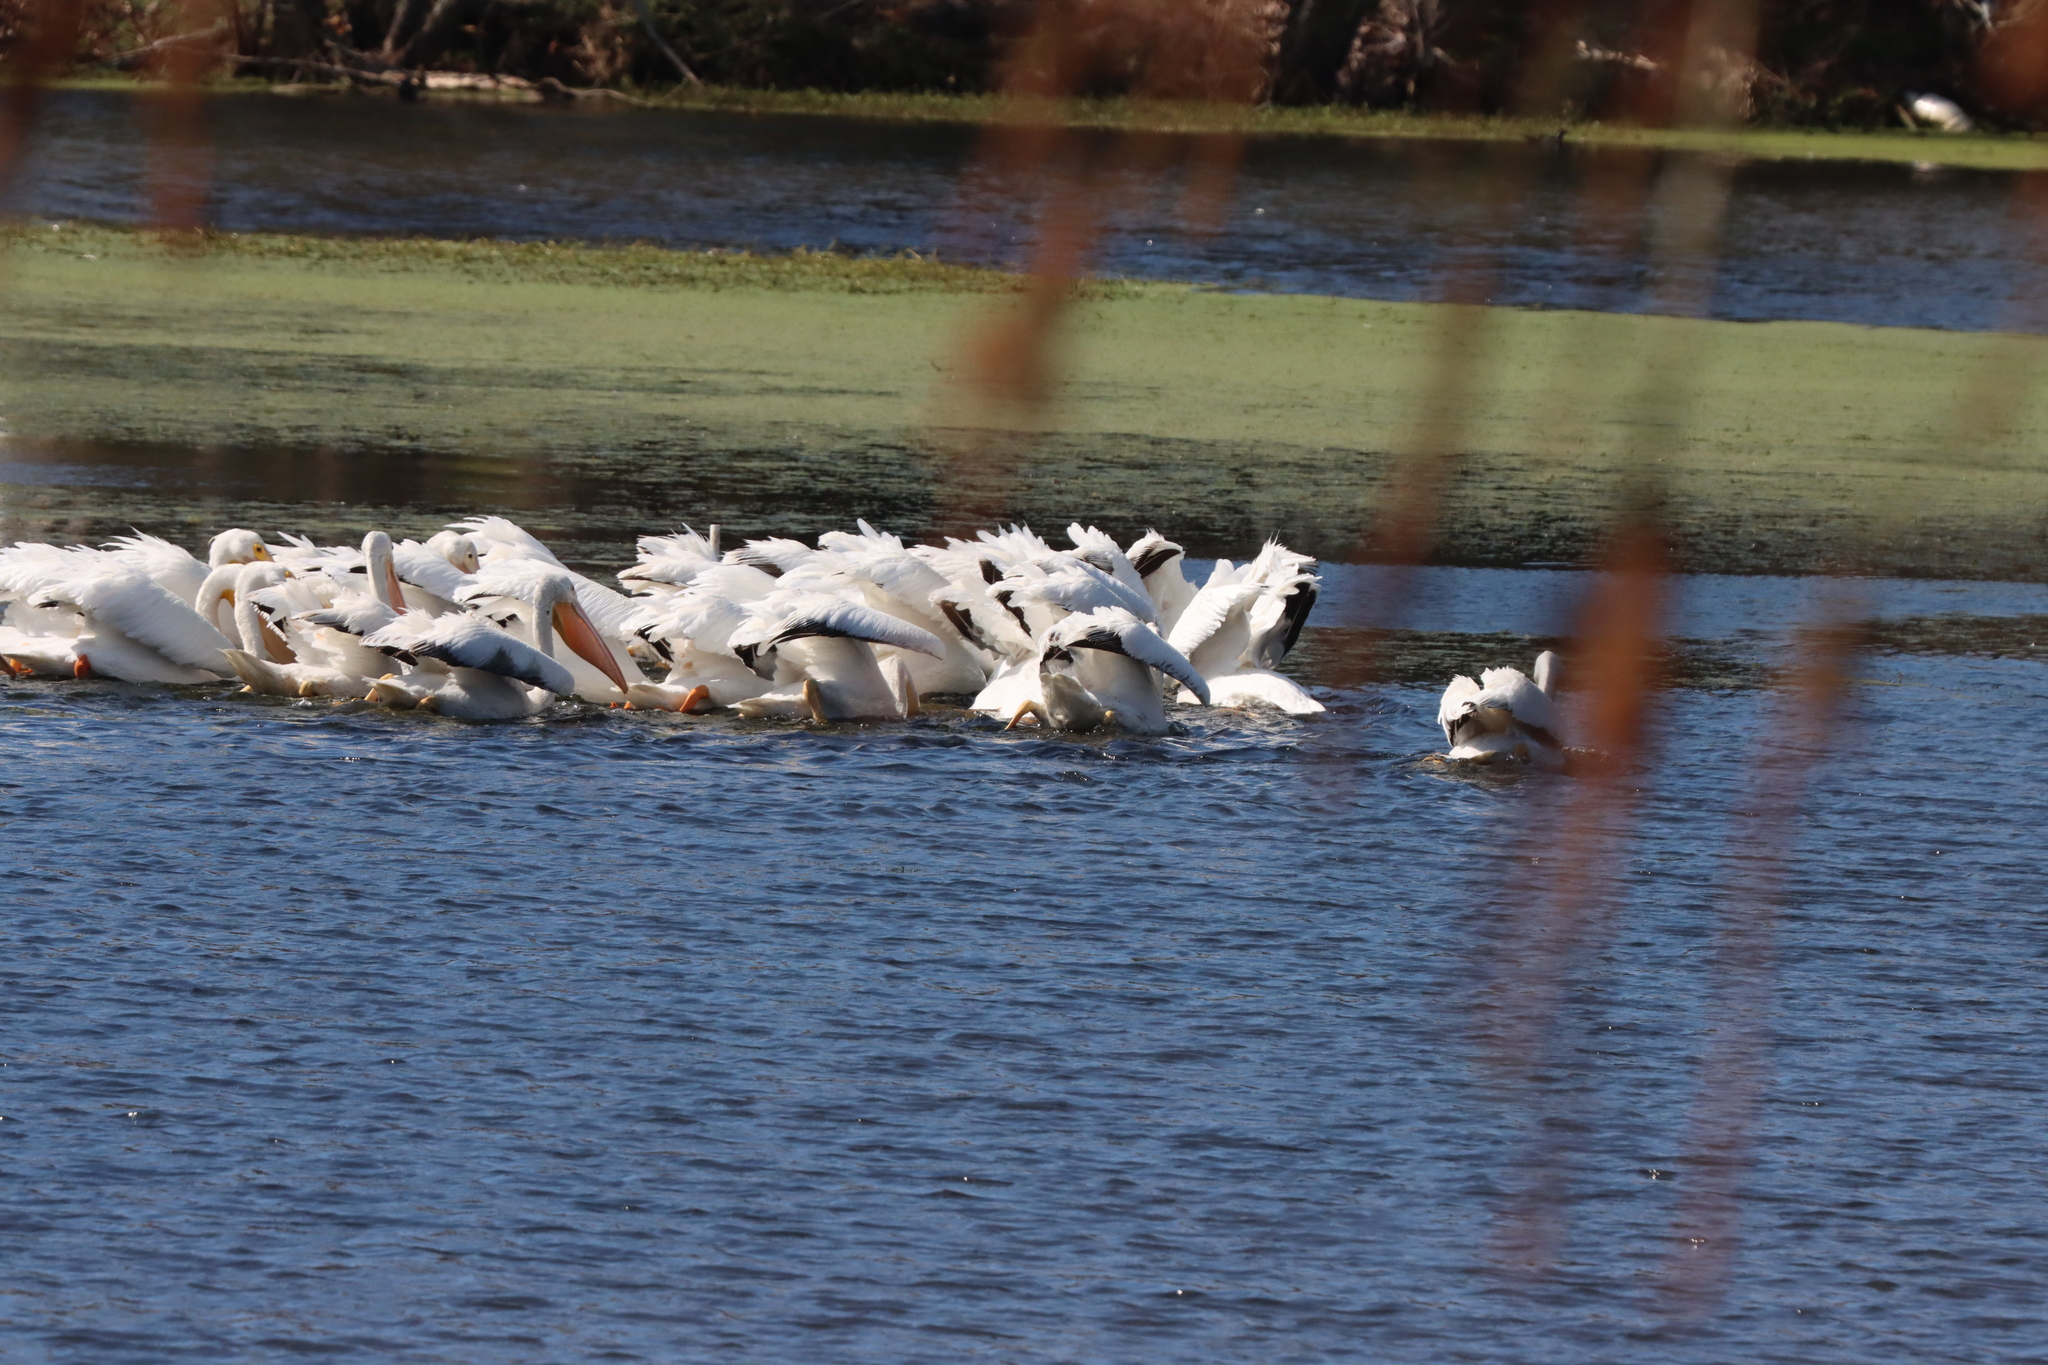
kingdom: Animalia
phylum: Chordata
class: Aves
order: Pelecaniformes
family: Pelecanidae
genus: Pelecanus
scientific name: Pelecanus erythrorhynchos
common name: American white pelican
